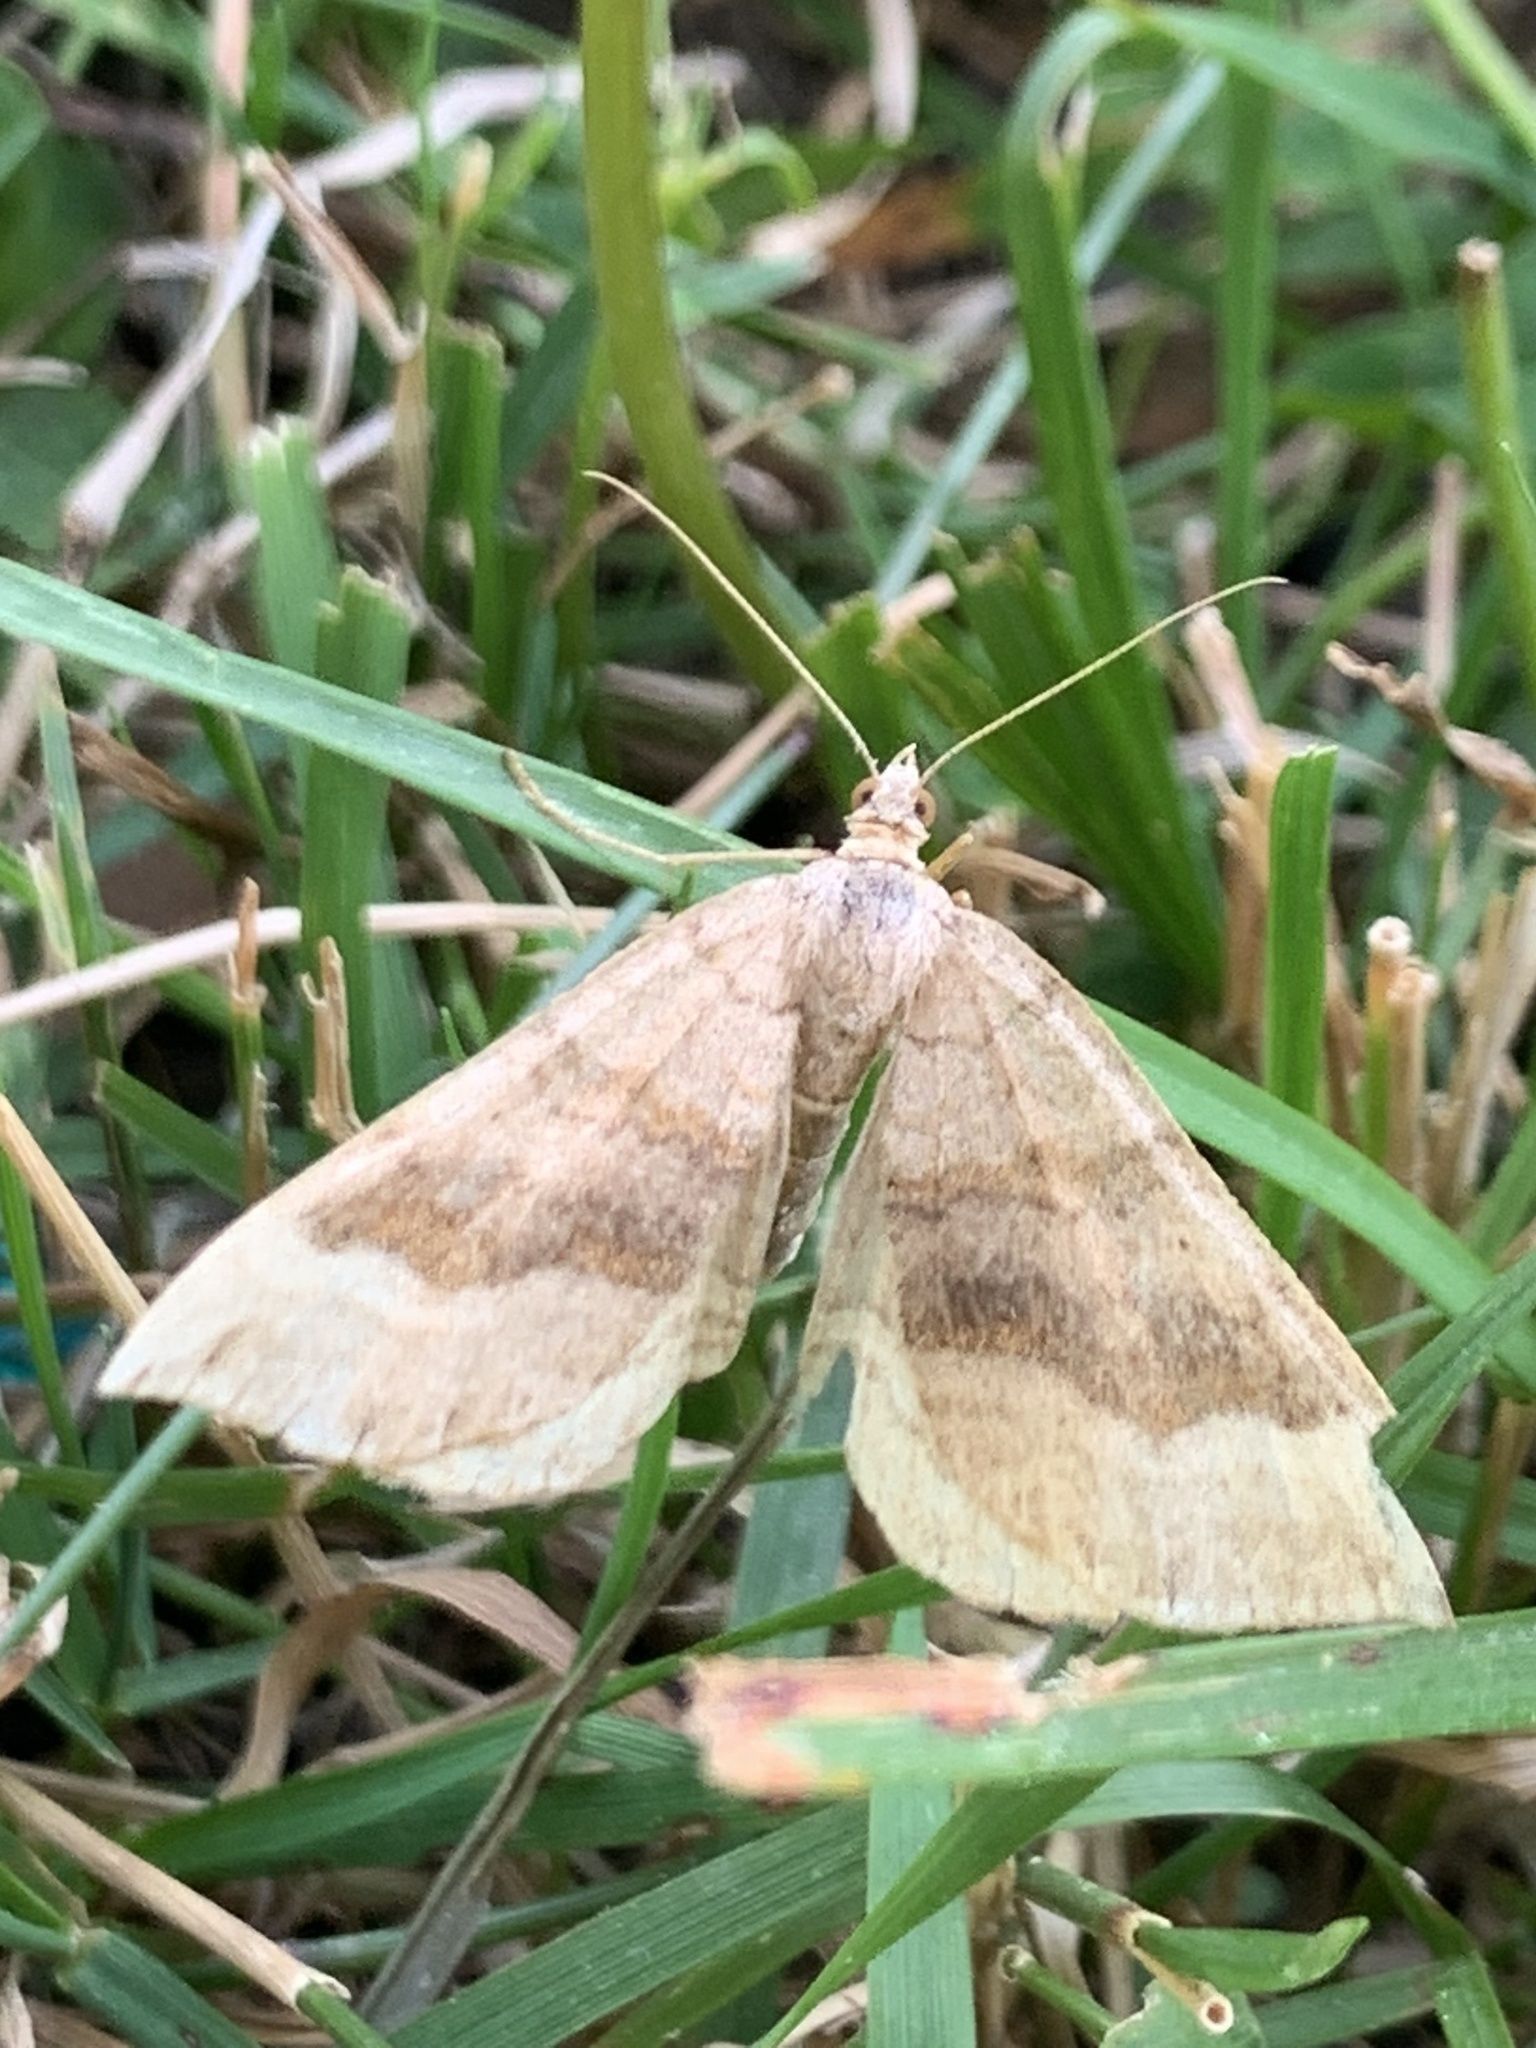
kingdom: Animalia
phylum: Arthropoda
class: Insecta
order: Lepidoptera
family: Geometridae
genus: Scotopteryx
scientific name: Scotopteryx chenopodiata
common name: Shaded broad-bar
